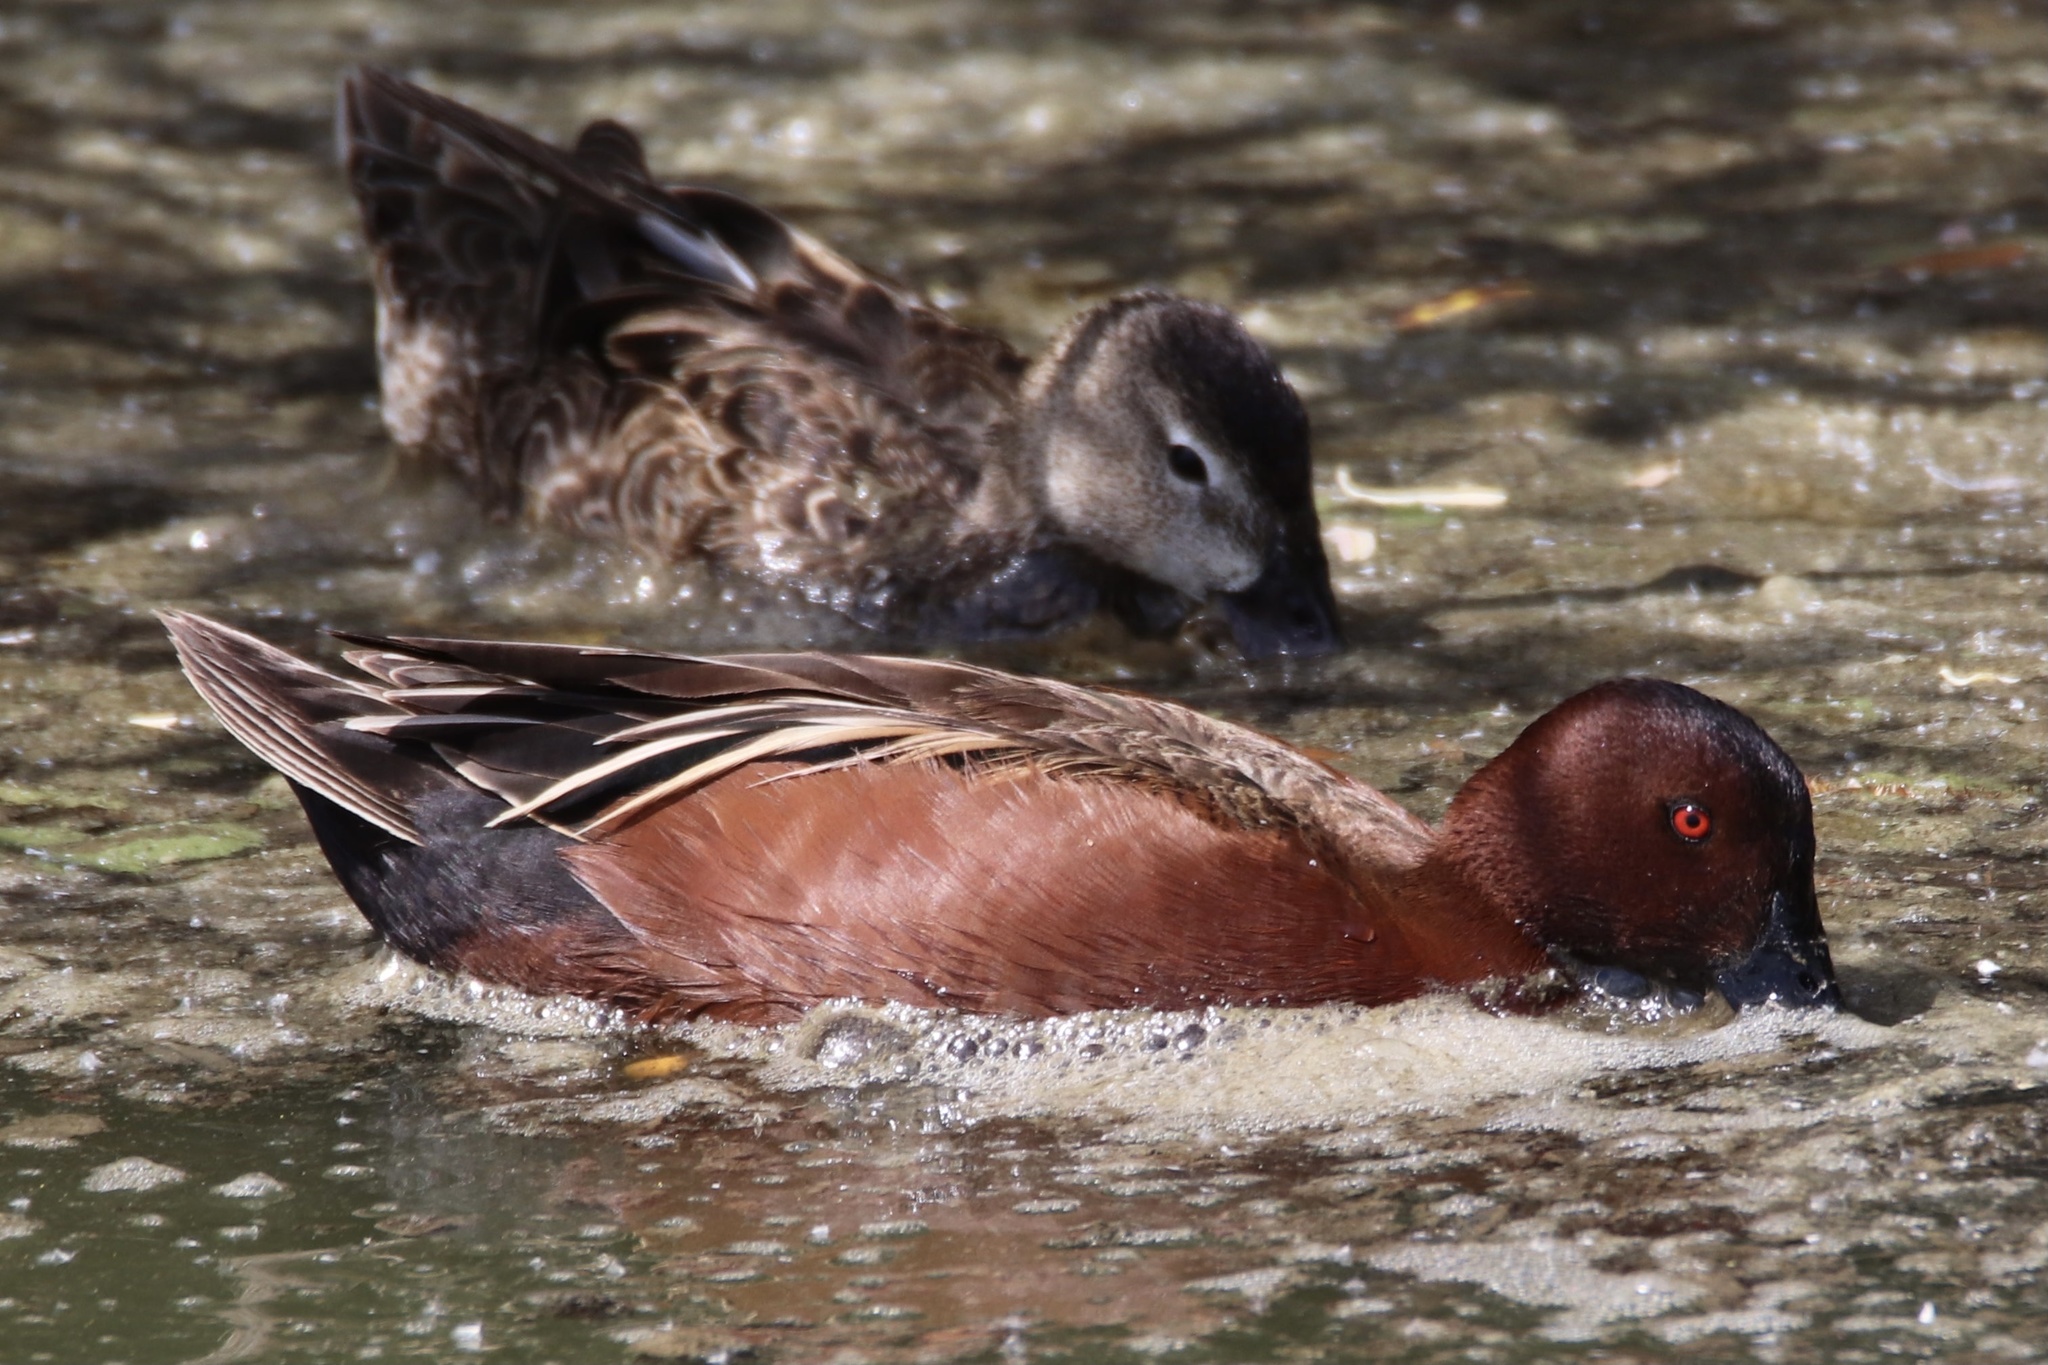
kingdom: Animalia
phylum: Chordata
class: Aves
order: Anseriformes
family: Anatidae
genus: Spatula
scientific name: Spatula cyanoptera
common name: Cinnamon teal
